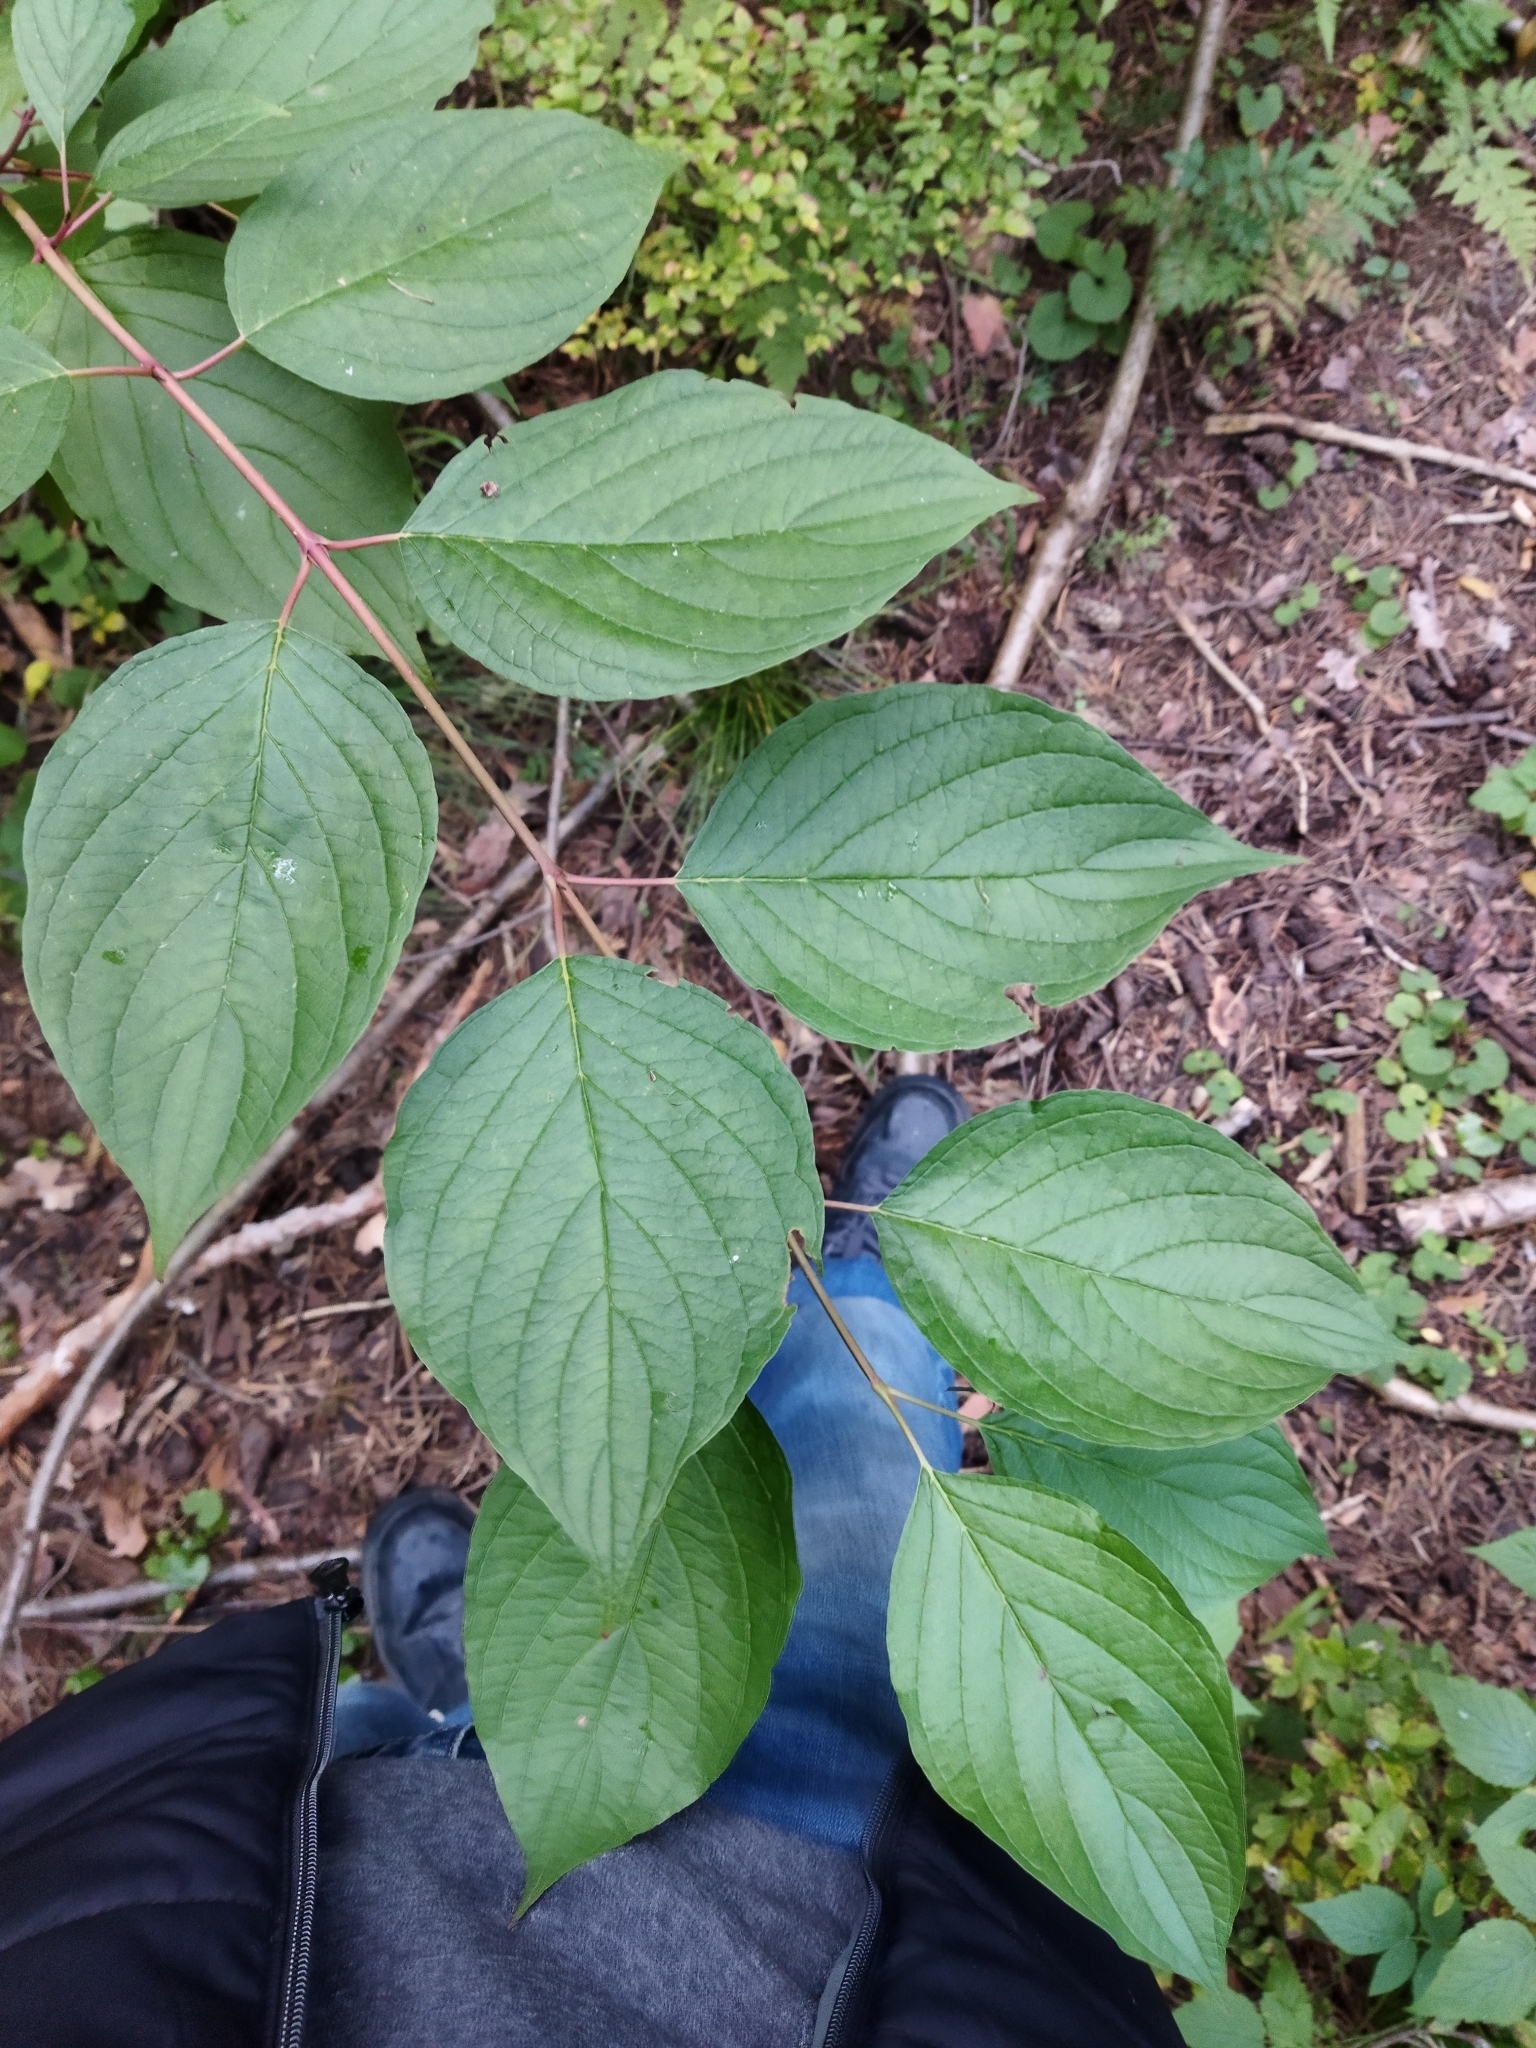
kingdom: Plantae
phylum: Tracheophyta
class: Magnoliopsida
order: Cornales
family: Cornaceae
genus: Cornus
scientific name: Cornus alba
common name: White dogwood
